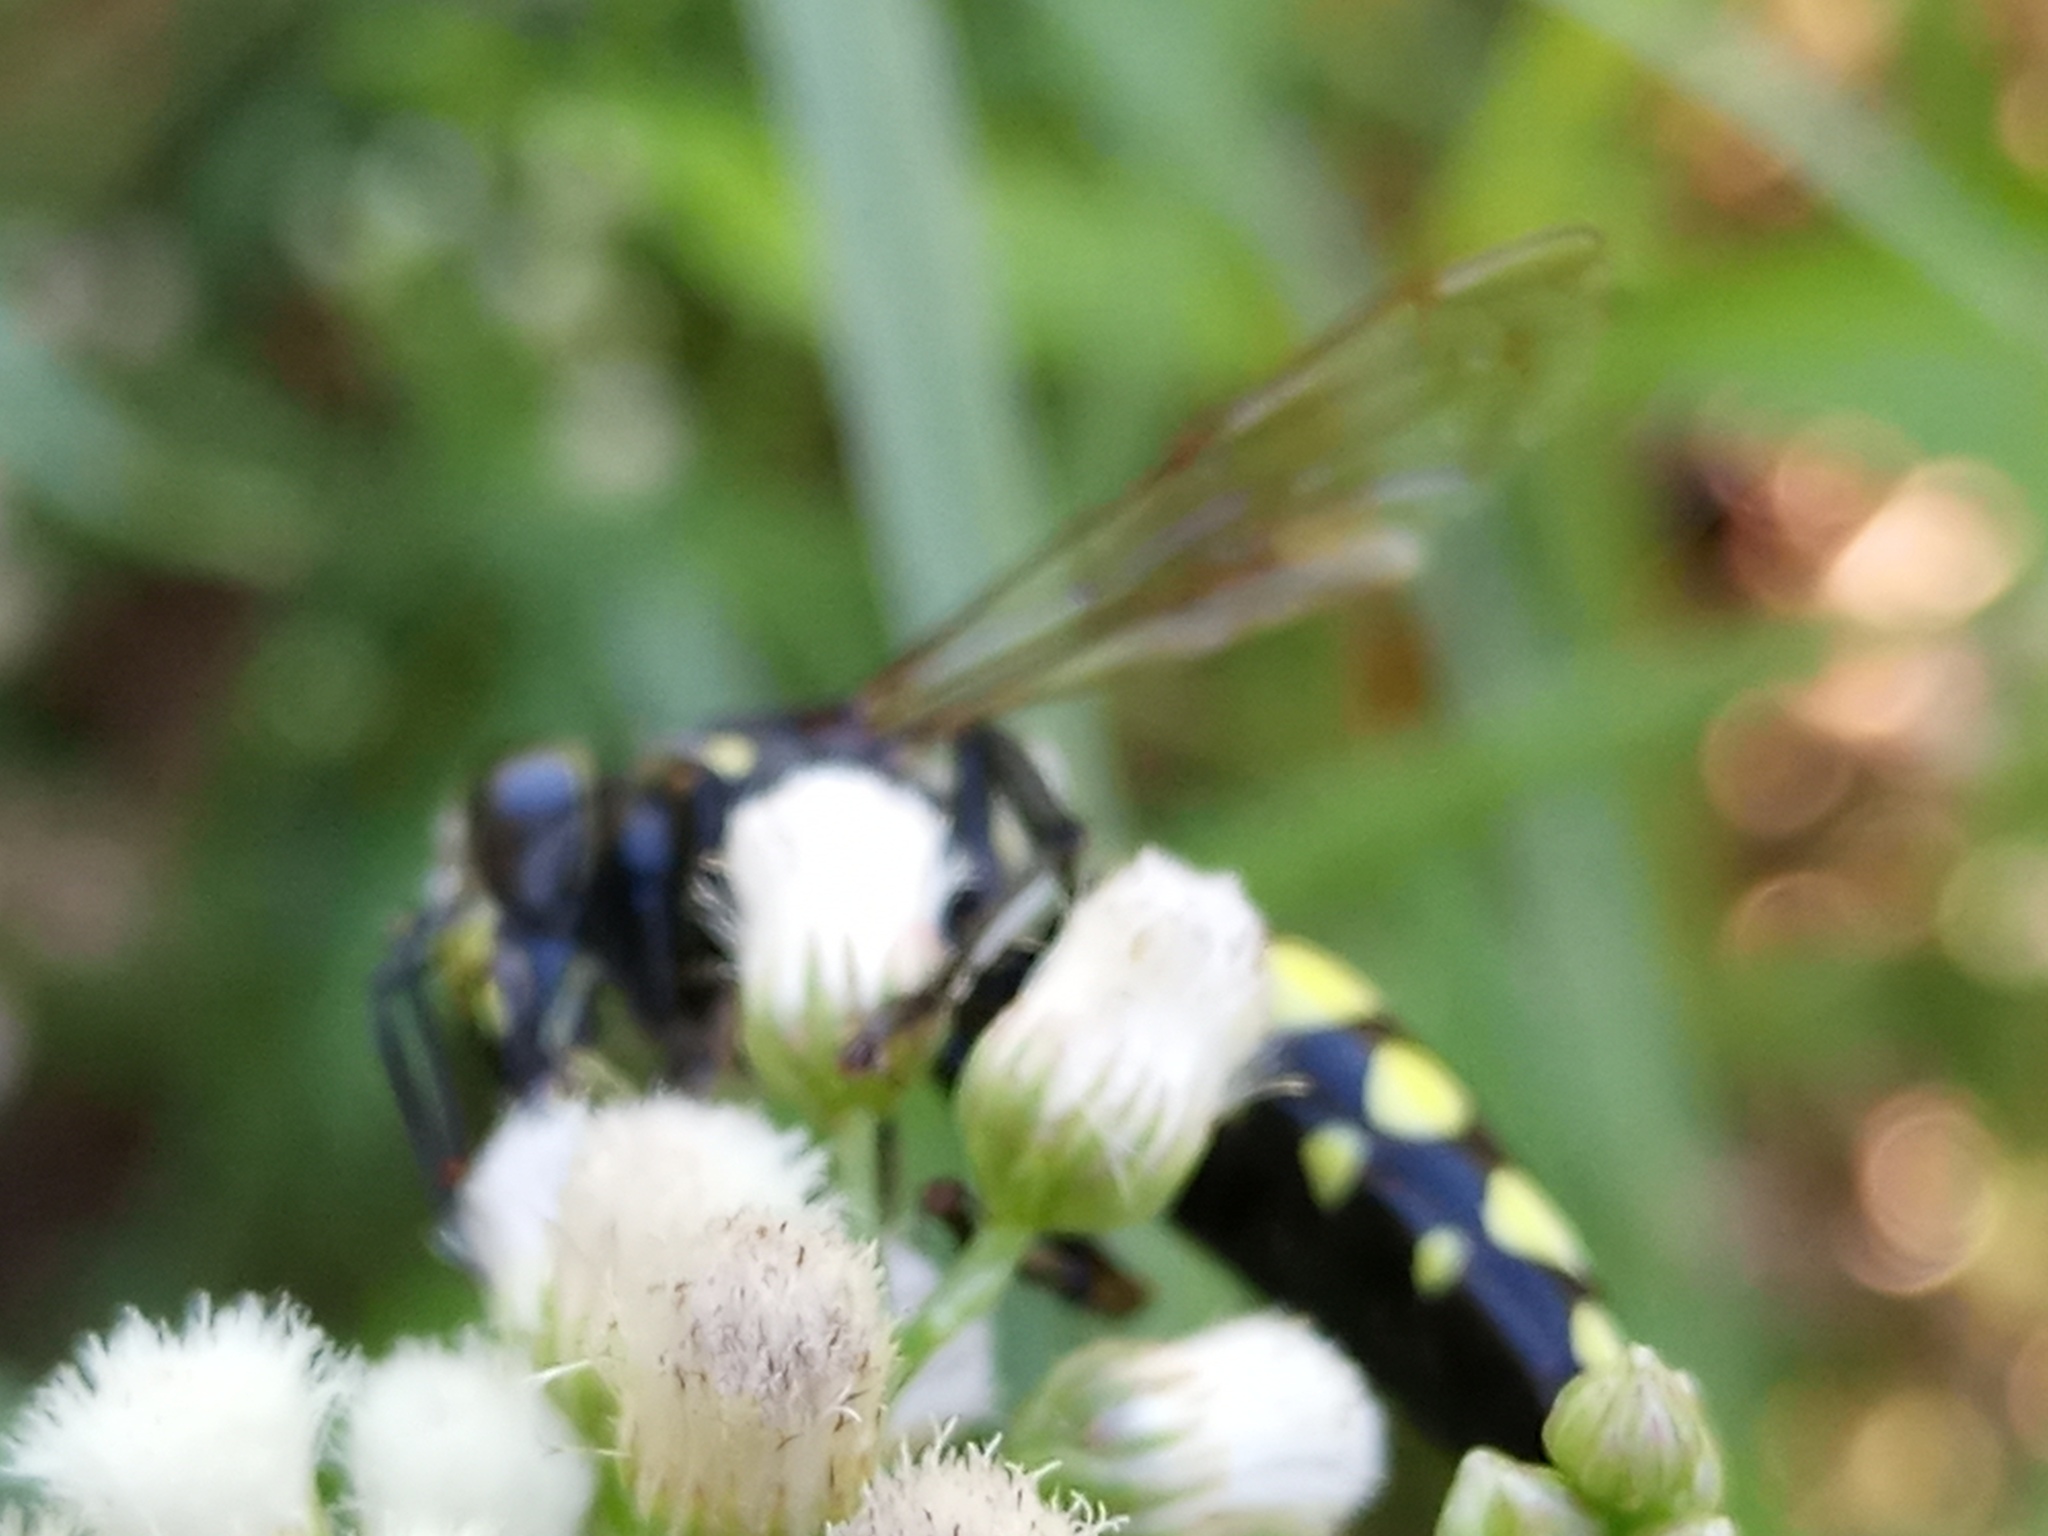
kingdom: Animalia
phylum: Arthropoda
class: Insecta
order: Hymenoptera
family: Crabronidae
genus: Stictia
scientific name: Stictia arcuata
